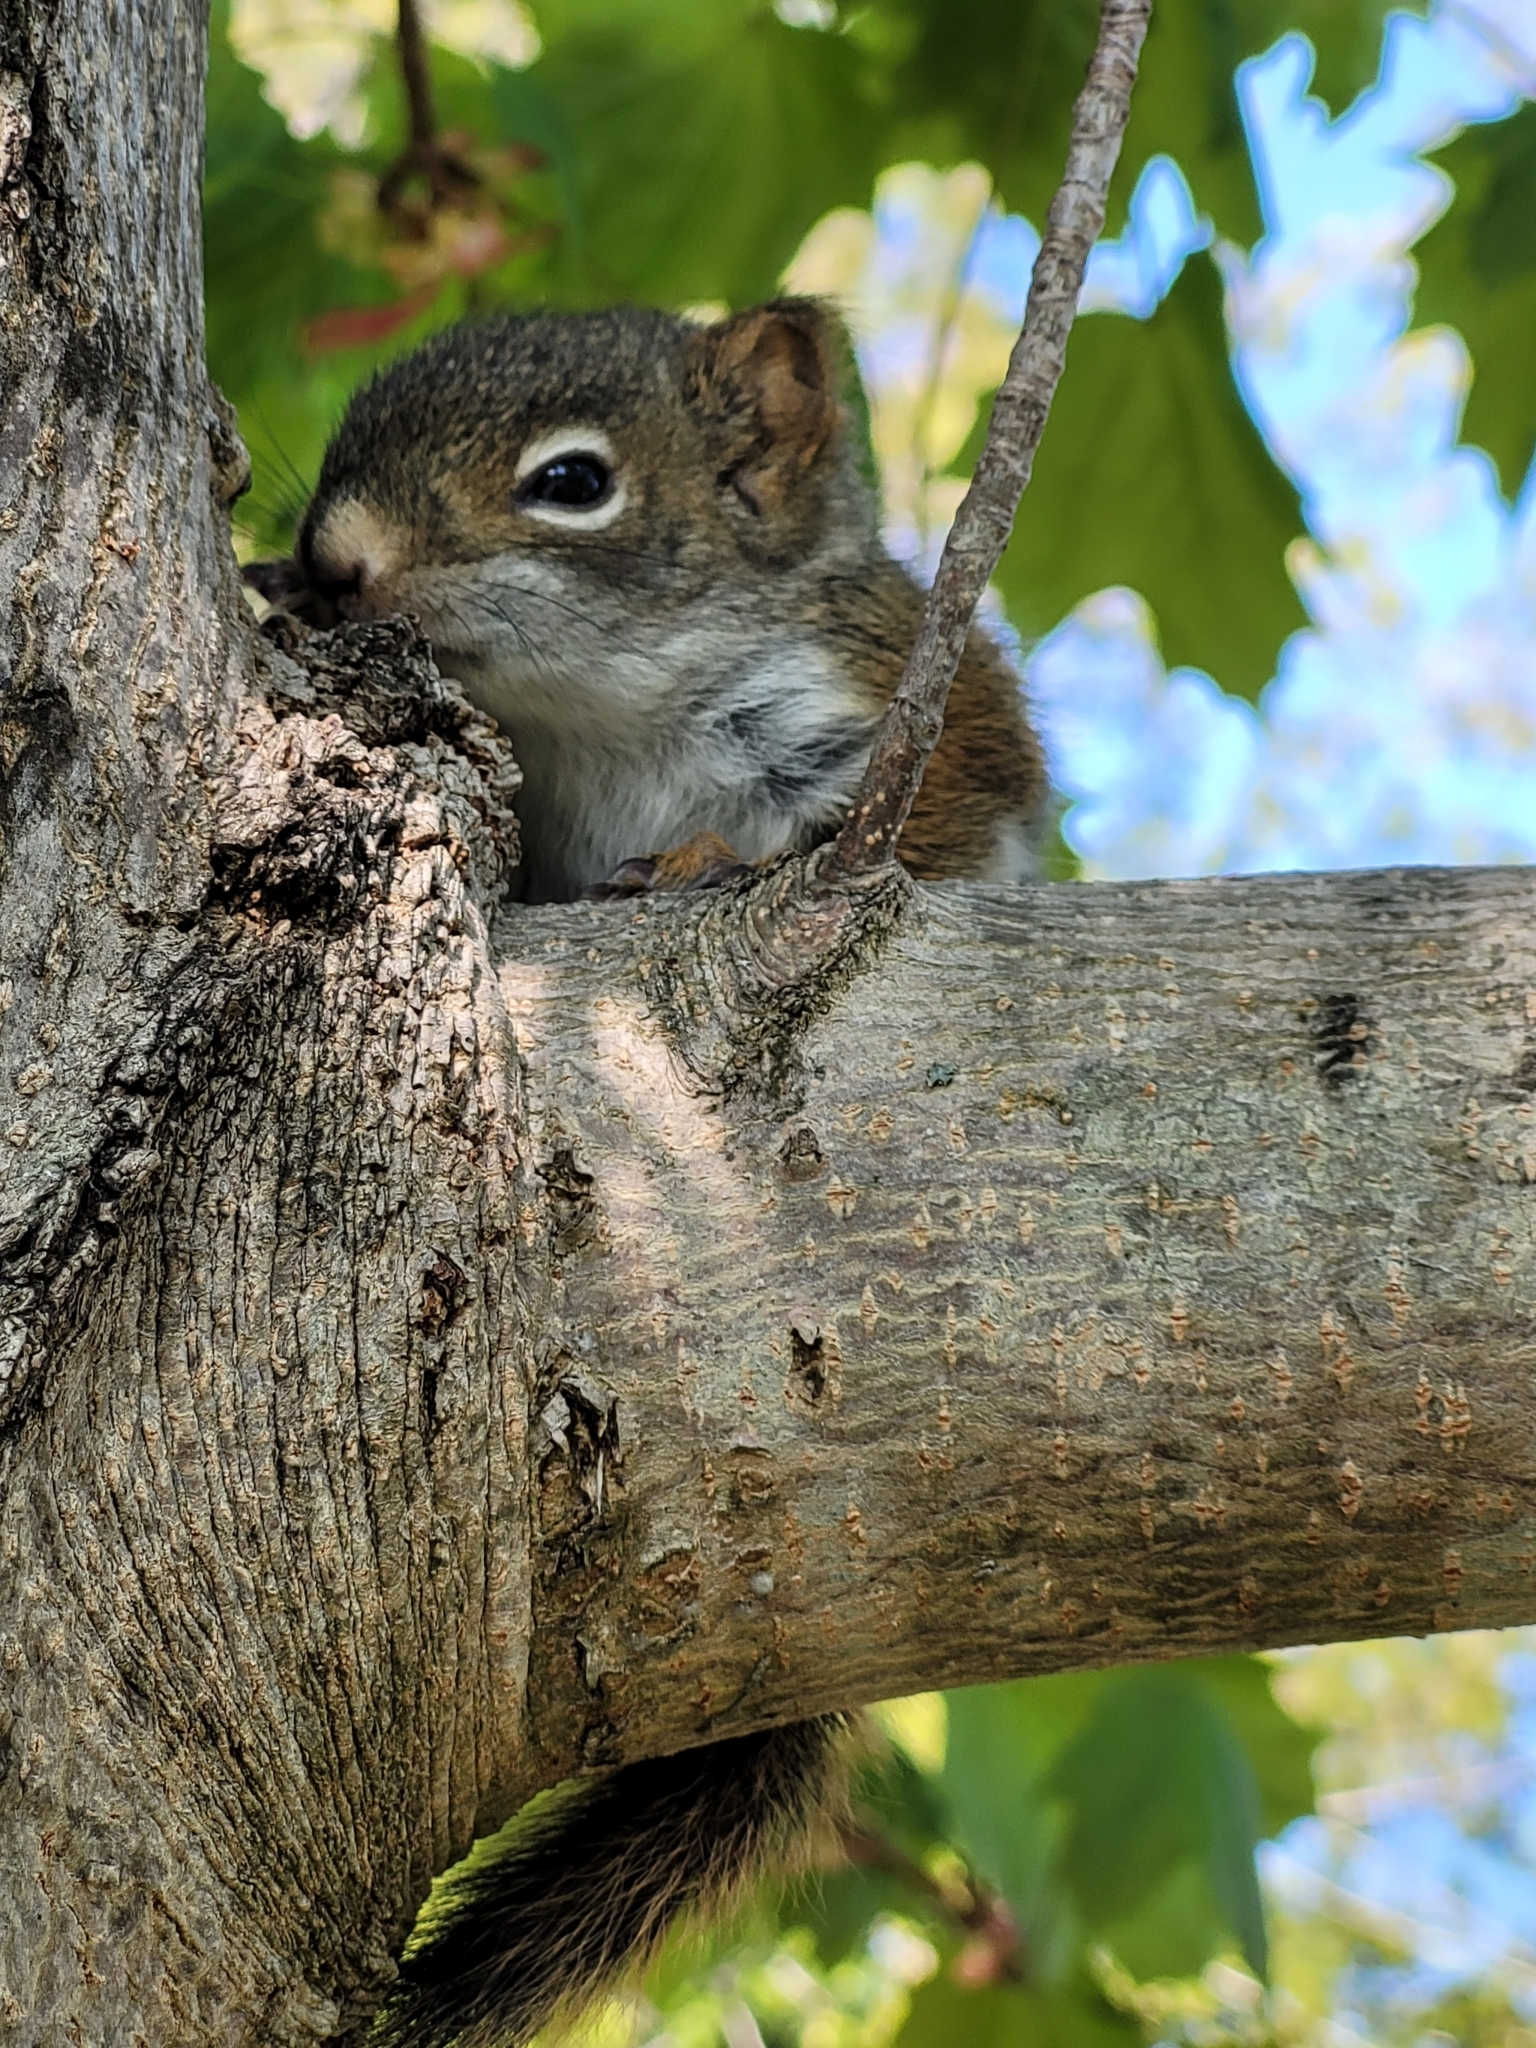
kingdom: Animalia
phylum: Chordata
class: Mammalia
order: Rodentia
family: Sciuridae
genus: Tamiasciurus
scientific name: Tamiasciurus hudsonicus
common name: Red squirrel
